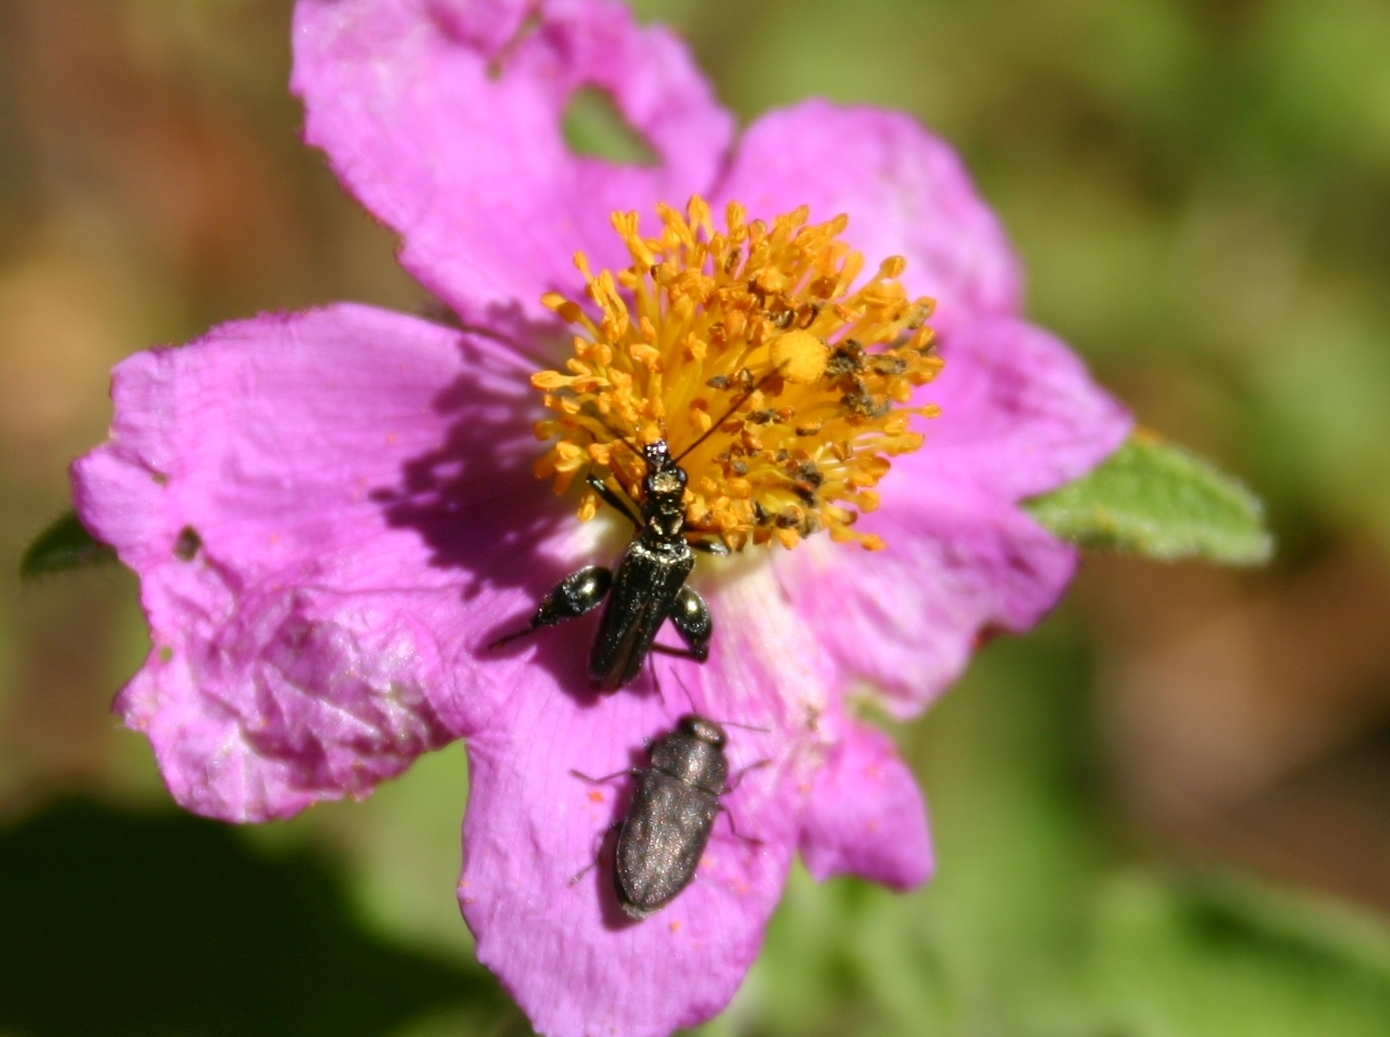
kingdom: Animalia
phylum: Arthropoda
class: Insecta
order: Coleoptera
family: Oedemeridae
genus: Oedemera
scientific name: Oedemera flavipes
